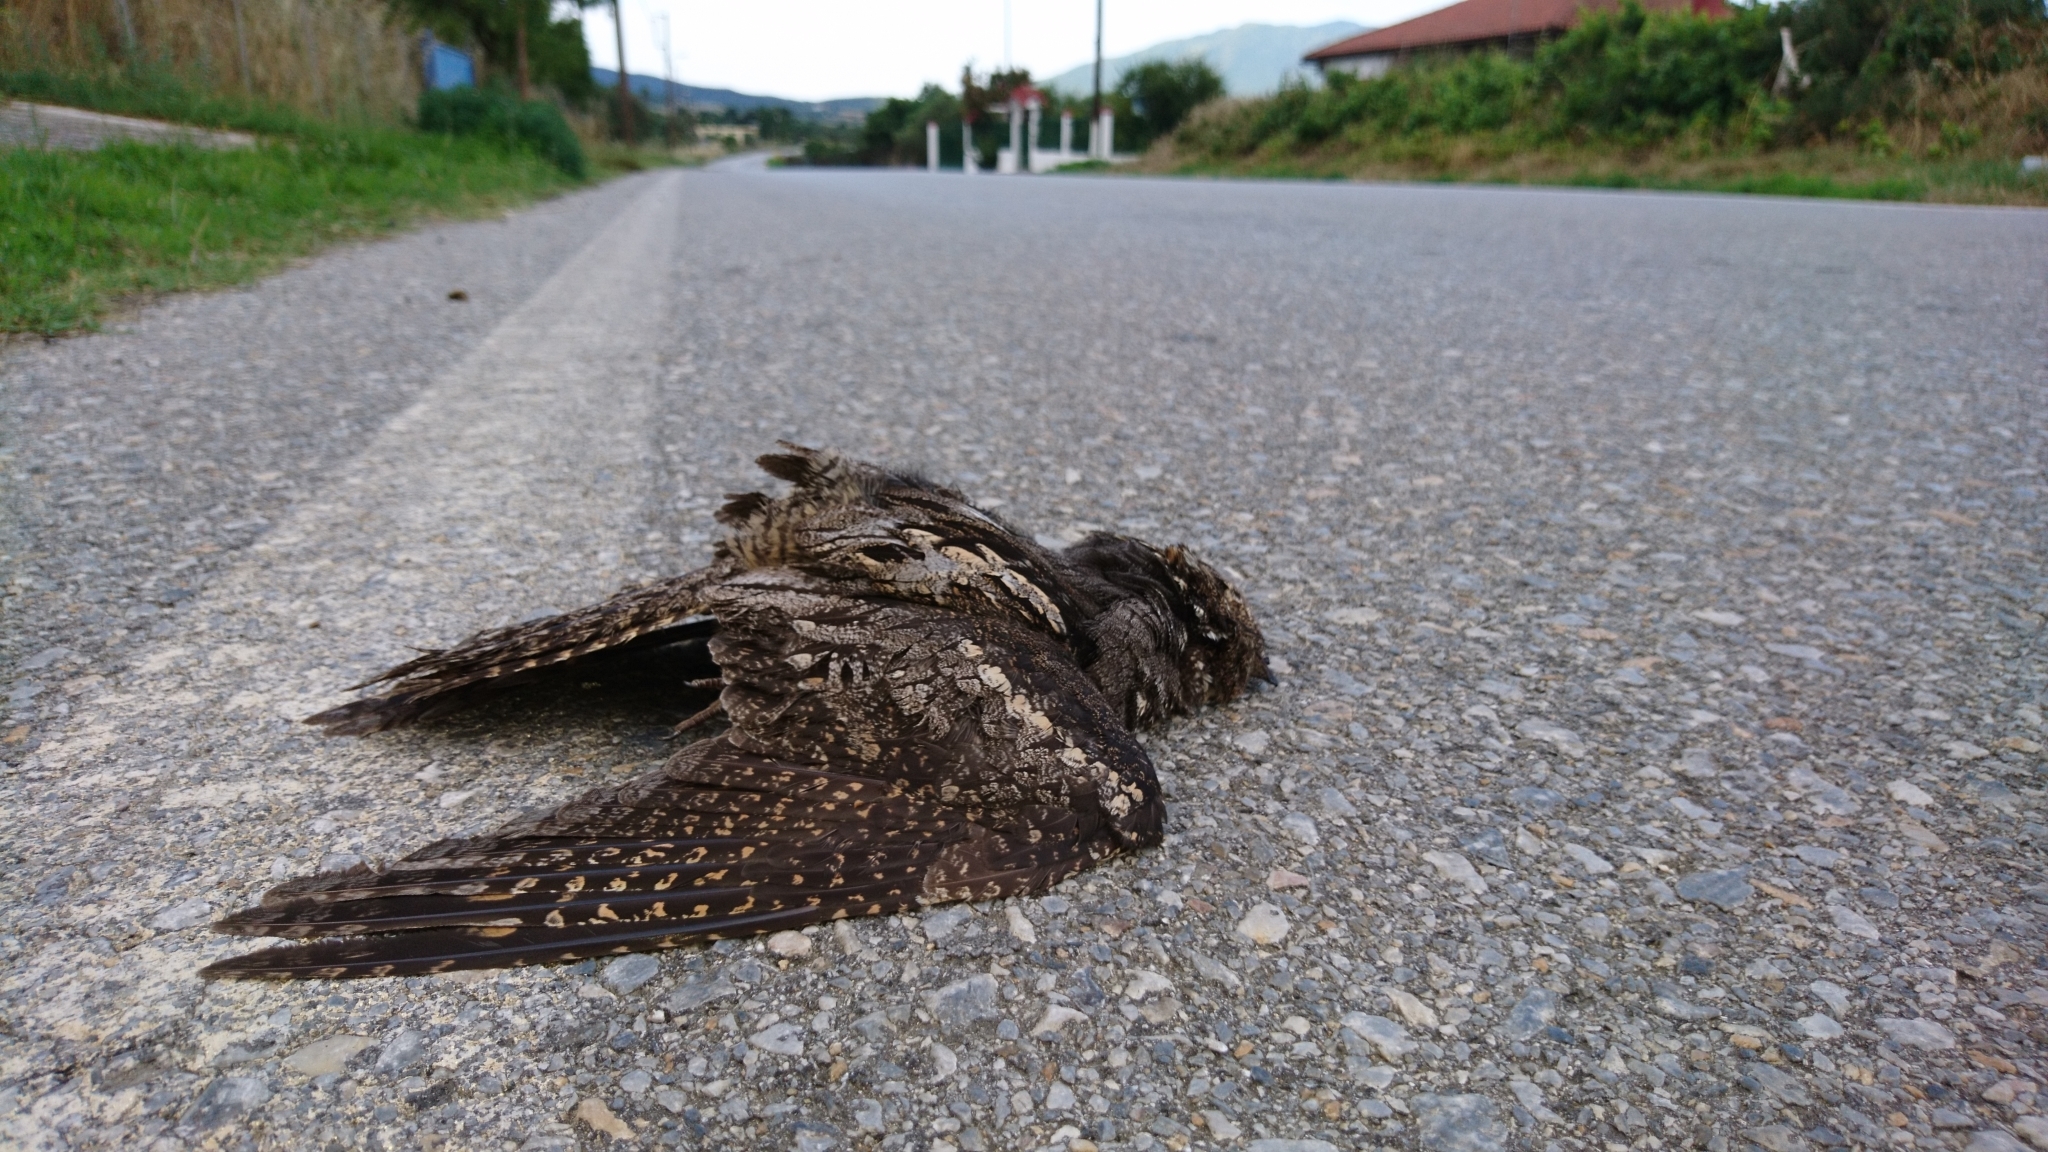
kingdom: Animalia
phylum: Chordata
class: Aves
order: Caprimulgiformes
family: Caprimulgidae
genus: Caprimulgus
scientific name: Caprimulgus europaeus
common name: European nightjar
